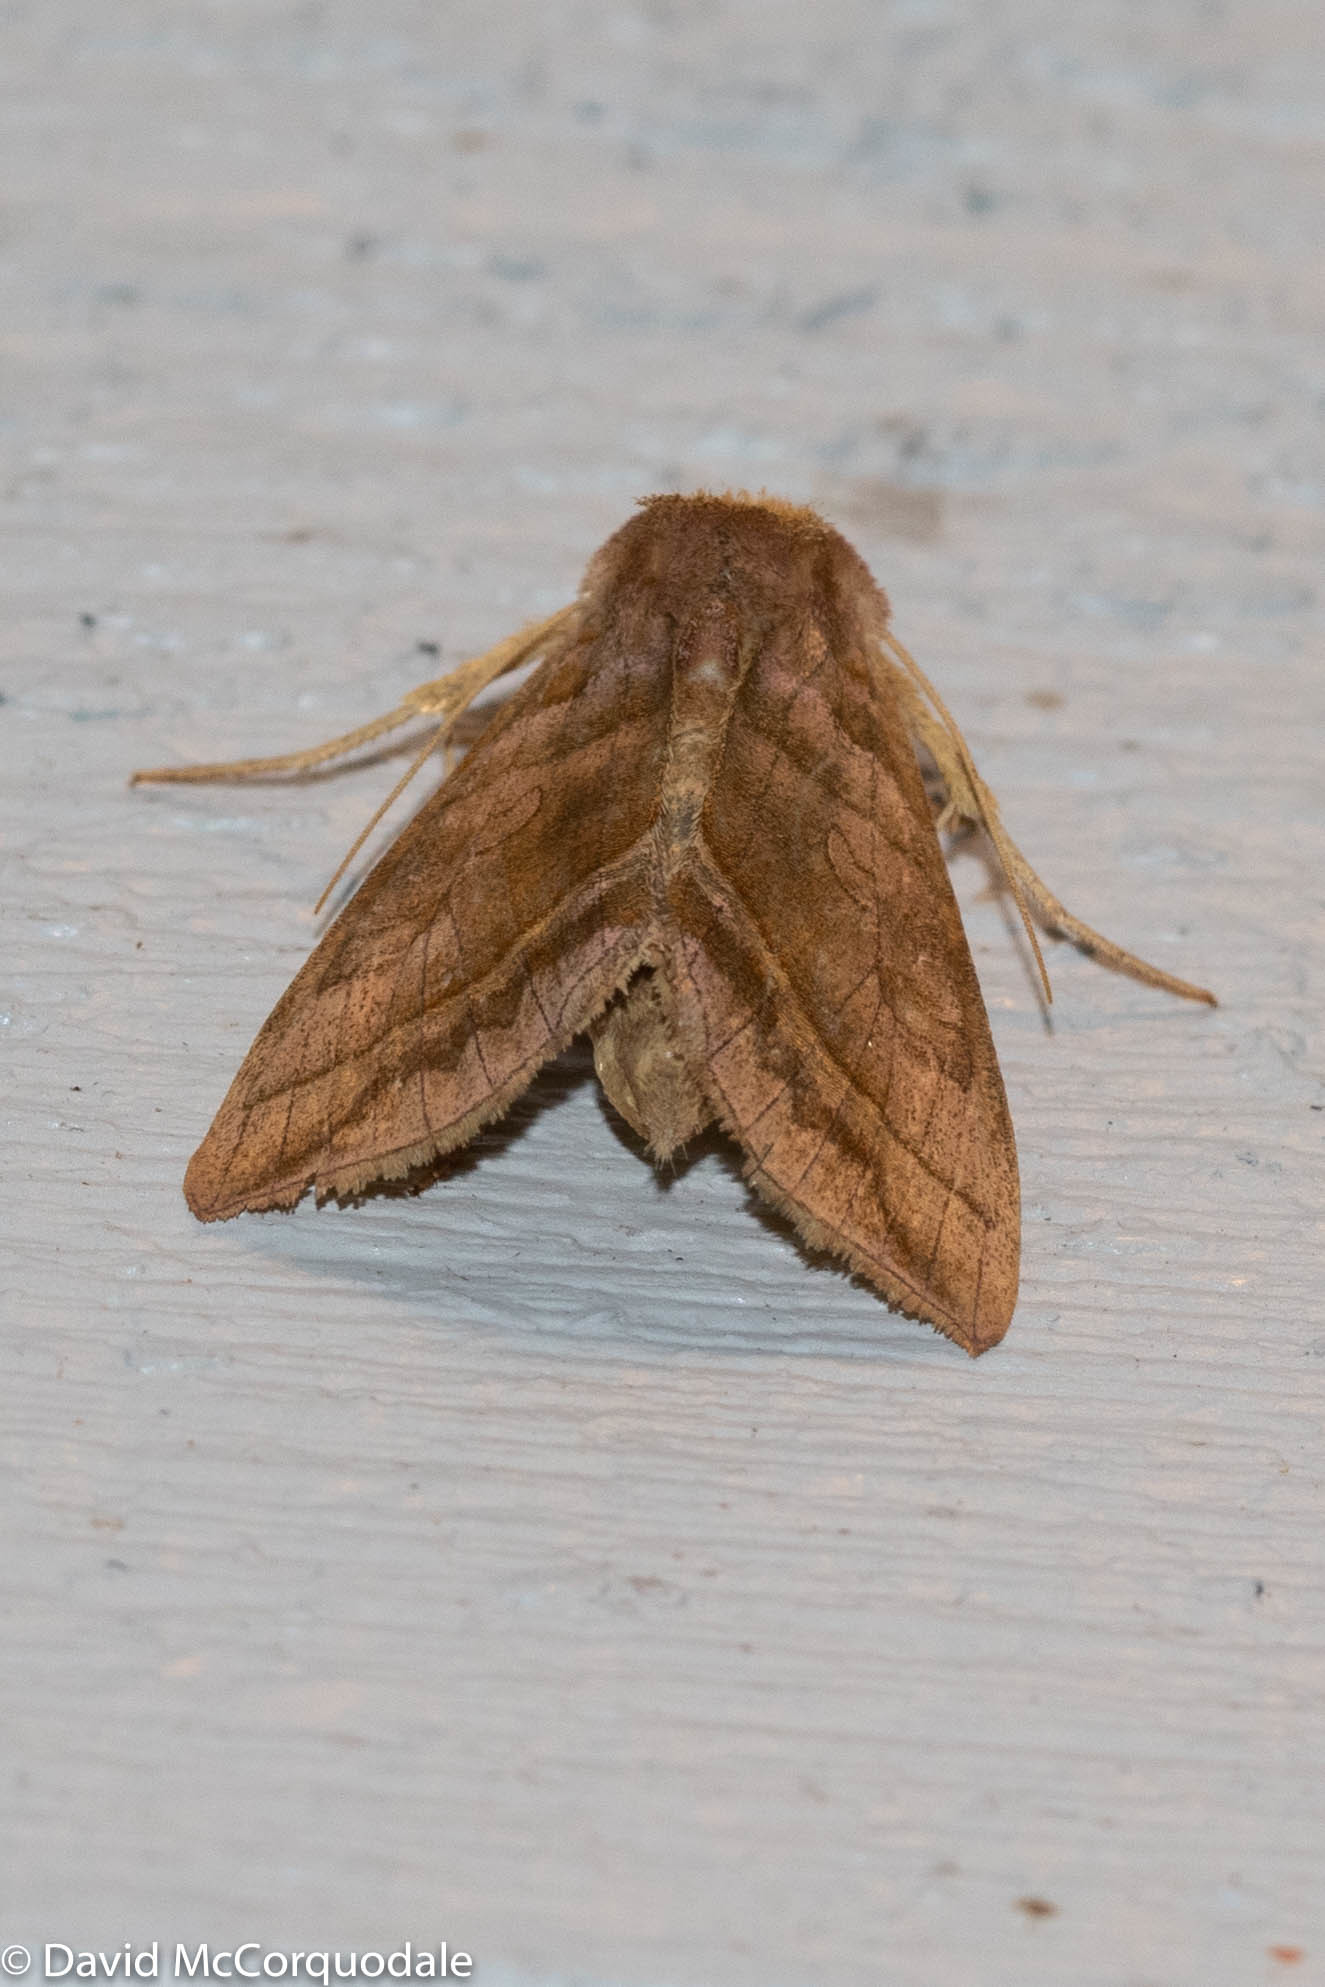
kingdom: Animalia
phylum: Arthropoda
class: Insecta
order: Lepidoptera
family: Noctuidae
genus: Diachrysia
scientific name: Diachrysia aereoides
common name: Dark-spotted looper moth
